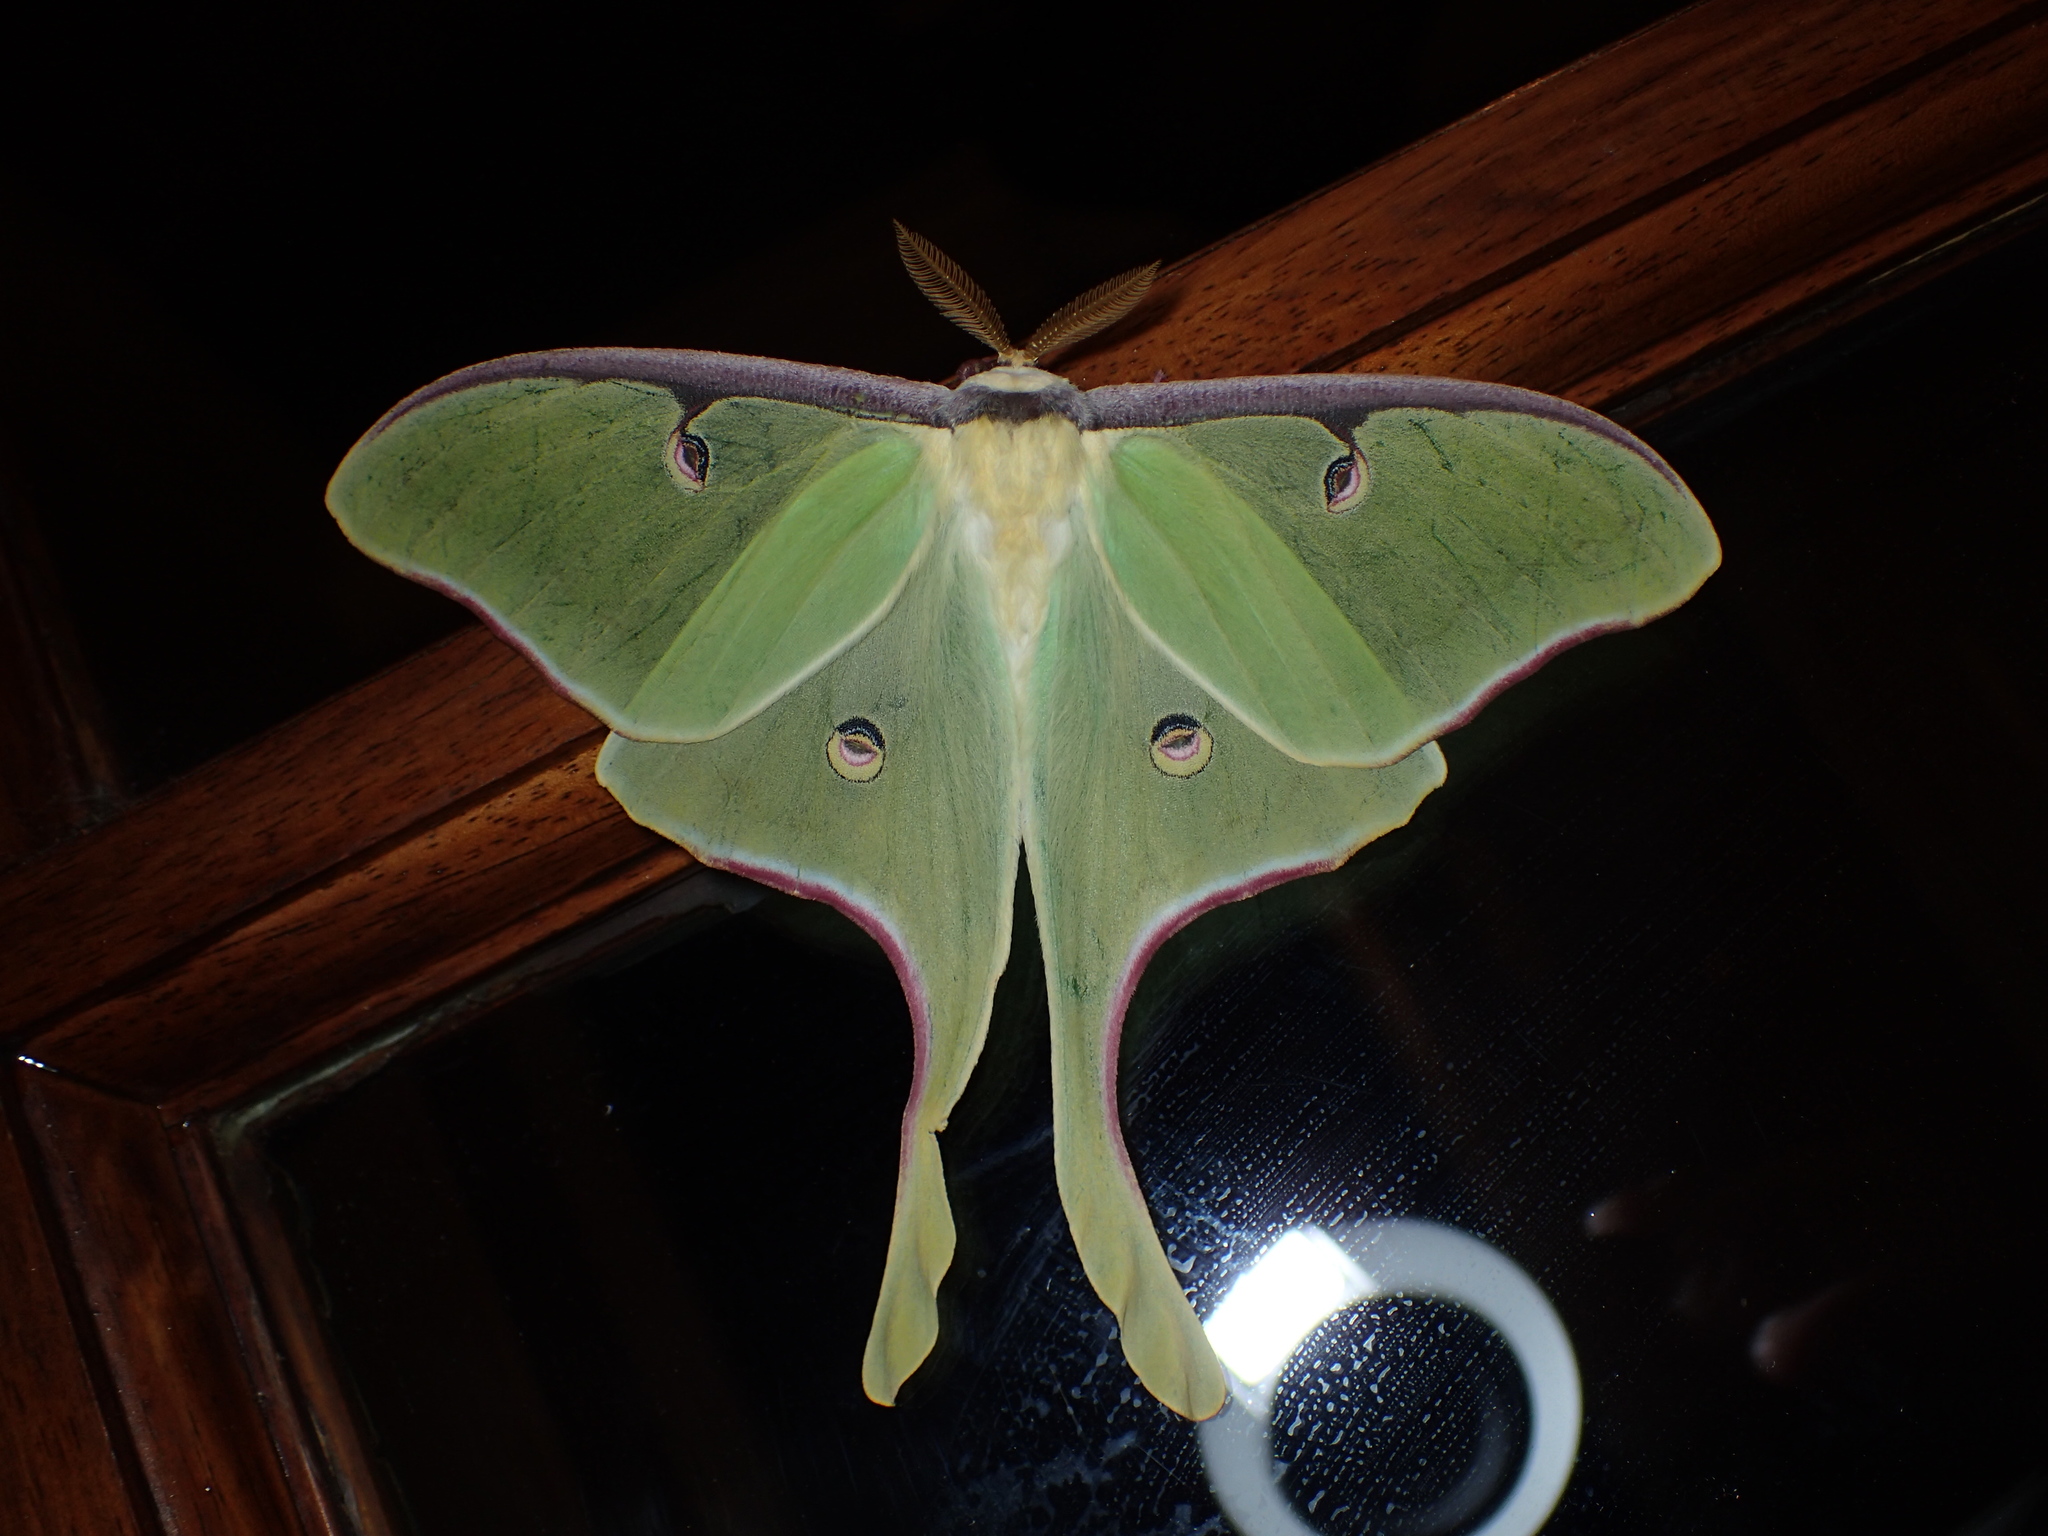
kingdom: Animalia
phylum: Arthropoda
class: Insecta
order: Lepidoptera
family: Saturniidae
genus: Actias
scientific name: Actias luna
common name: Luna moth
